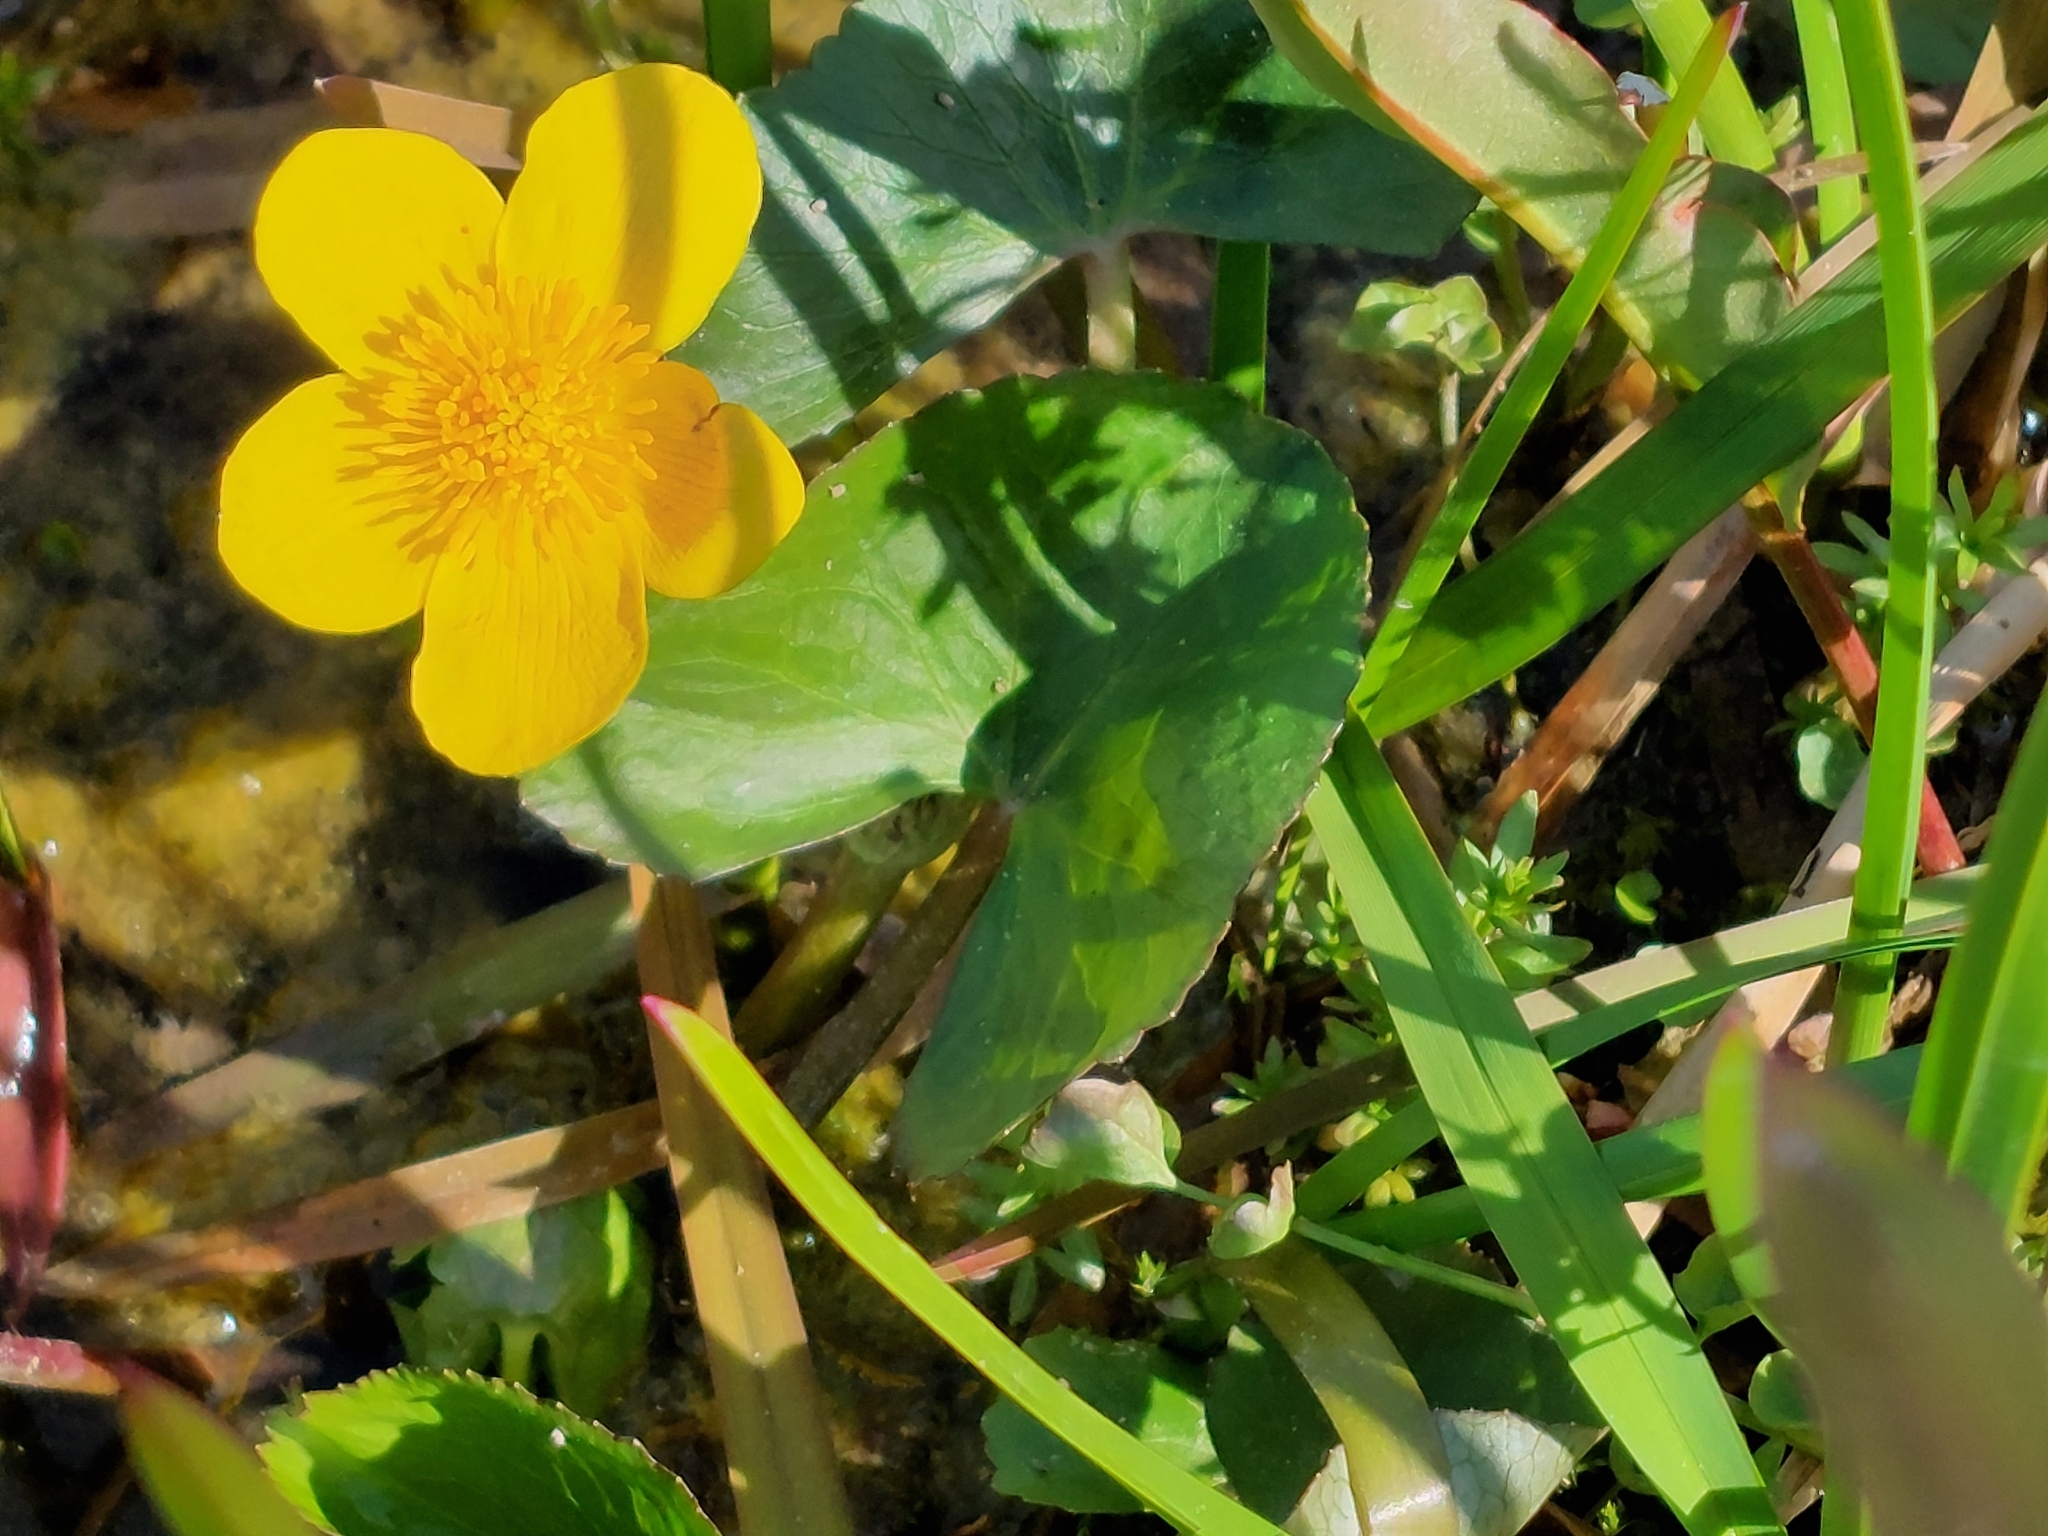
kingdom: Plantae
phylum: Tracheophyta
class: Magnoliopsida
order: Ranunculales
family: Ranunculaceae
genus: Caltha
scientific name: Caltha palustris
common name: Marsh marigold
